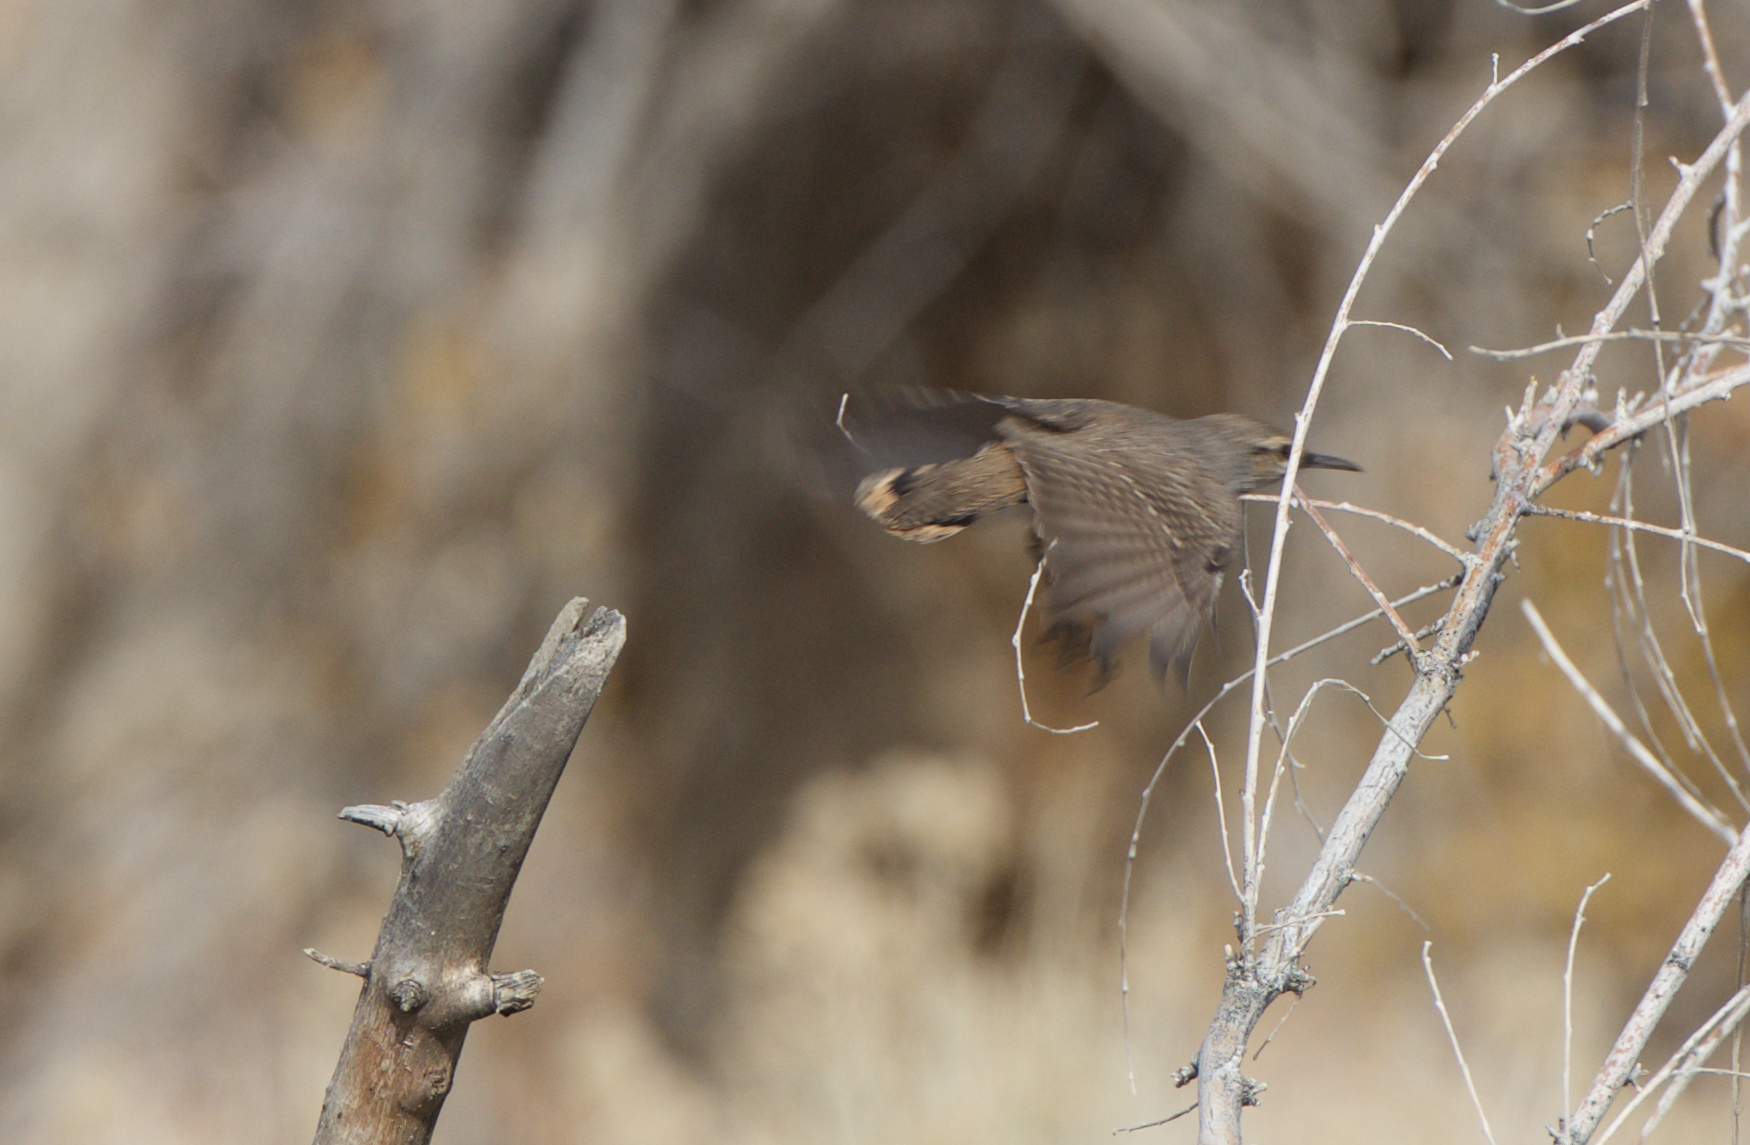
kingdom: Animalia
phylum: Chordata
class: Aves
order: Passeriformes
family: Troglodytidae
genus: Salpinctes
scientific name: Salpinctes obsoletus
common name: Rock wren
